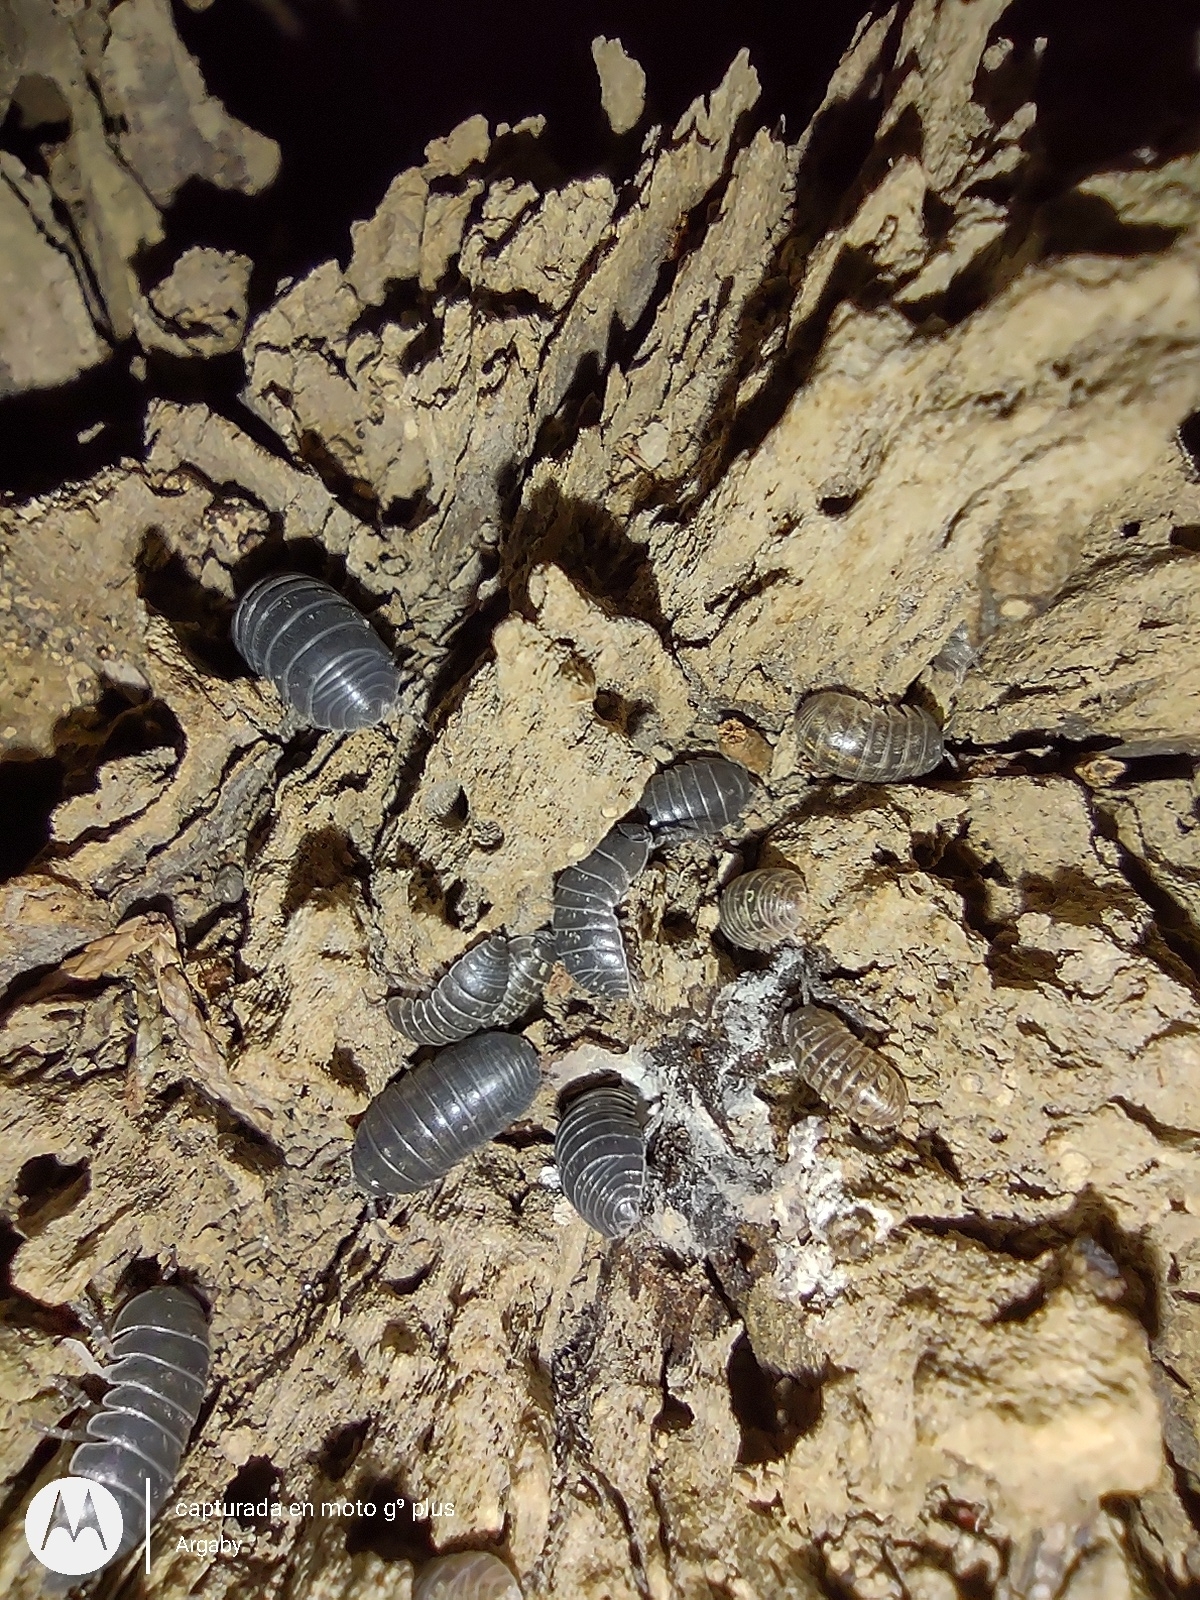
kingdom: Animalia
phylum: Arthropoda
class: Malacostraca
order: Isopoda
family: Armadillidiidae
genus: Armadillidium
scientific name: Armadillidium vulgare
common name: Common pill woodlouse
